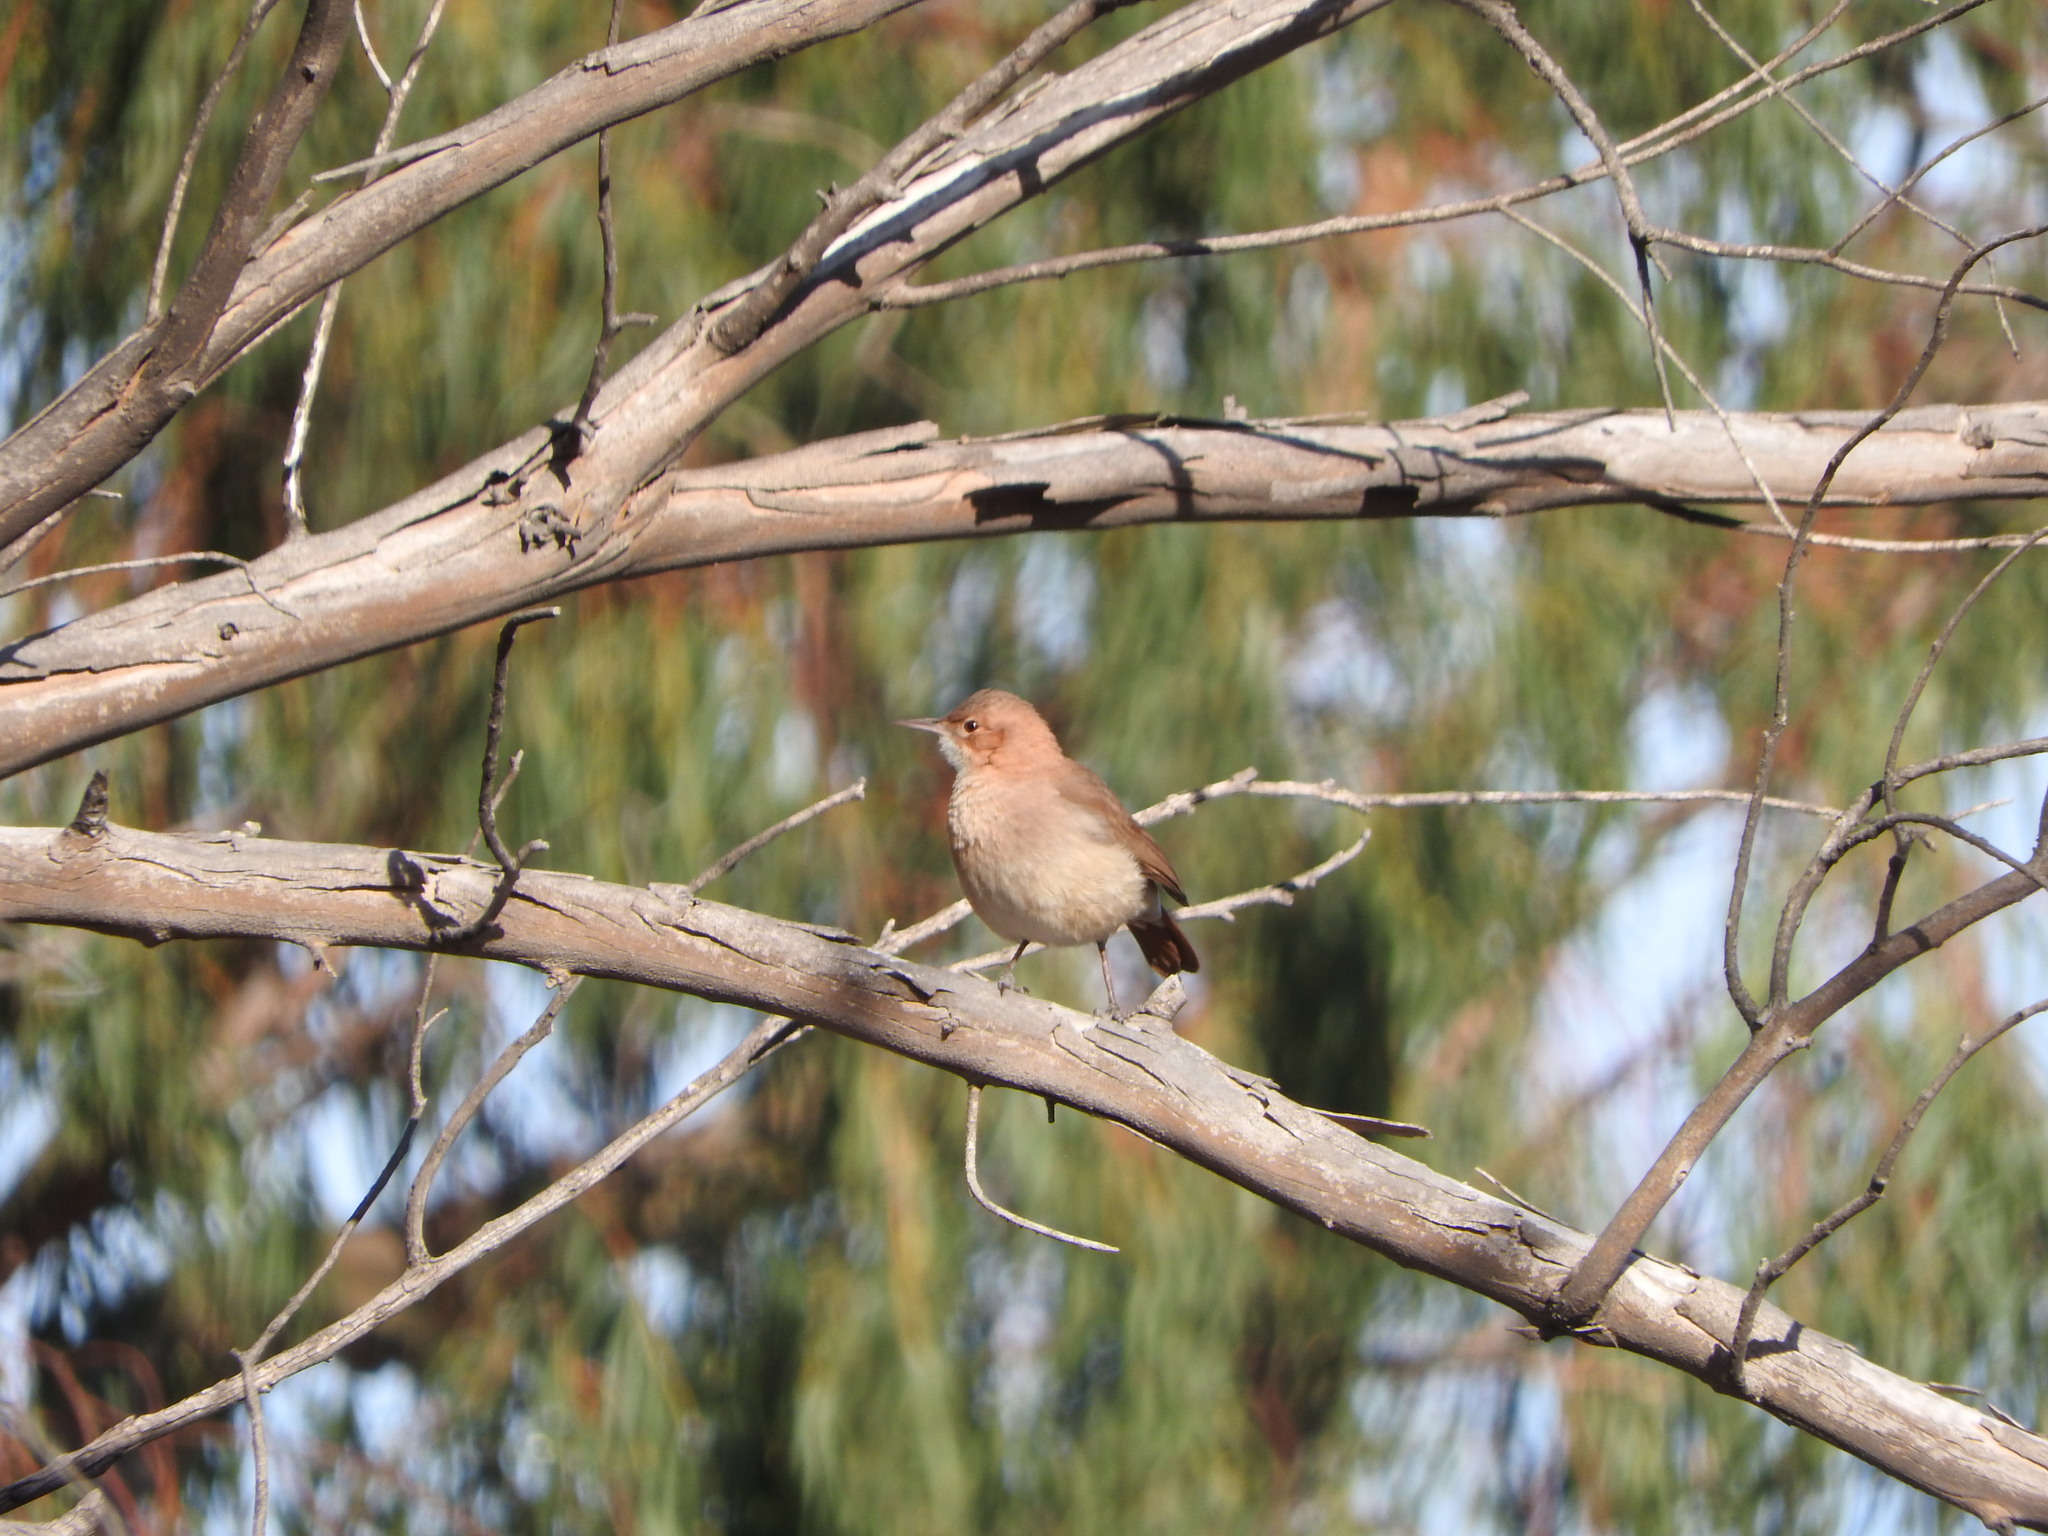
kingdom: Animalia
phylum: Chordata
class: Aves
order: Passeriformes
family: Furnariidae
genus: Furnarius
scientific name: Furnarius rufus
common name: Rufous hornero
